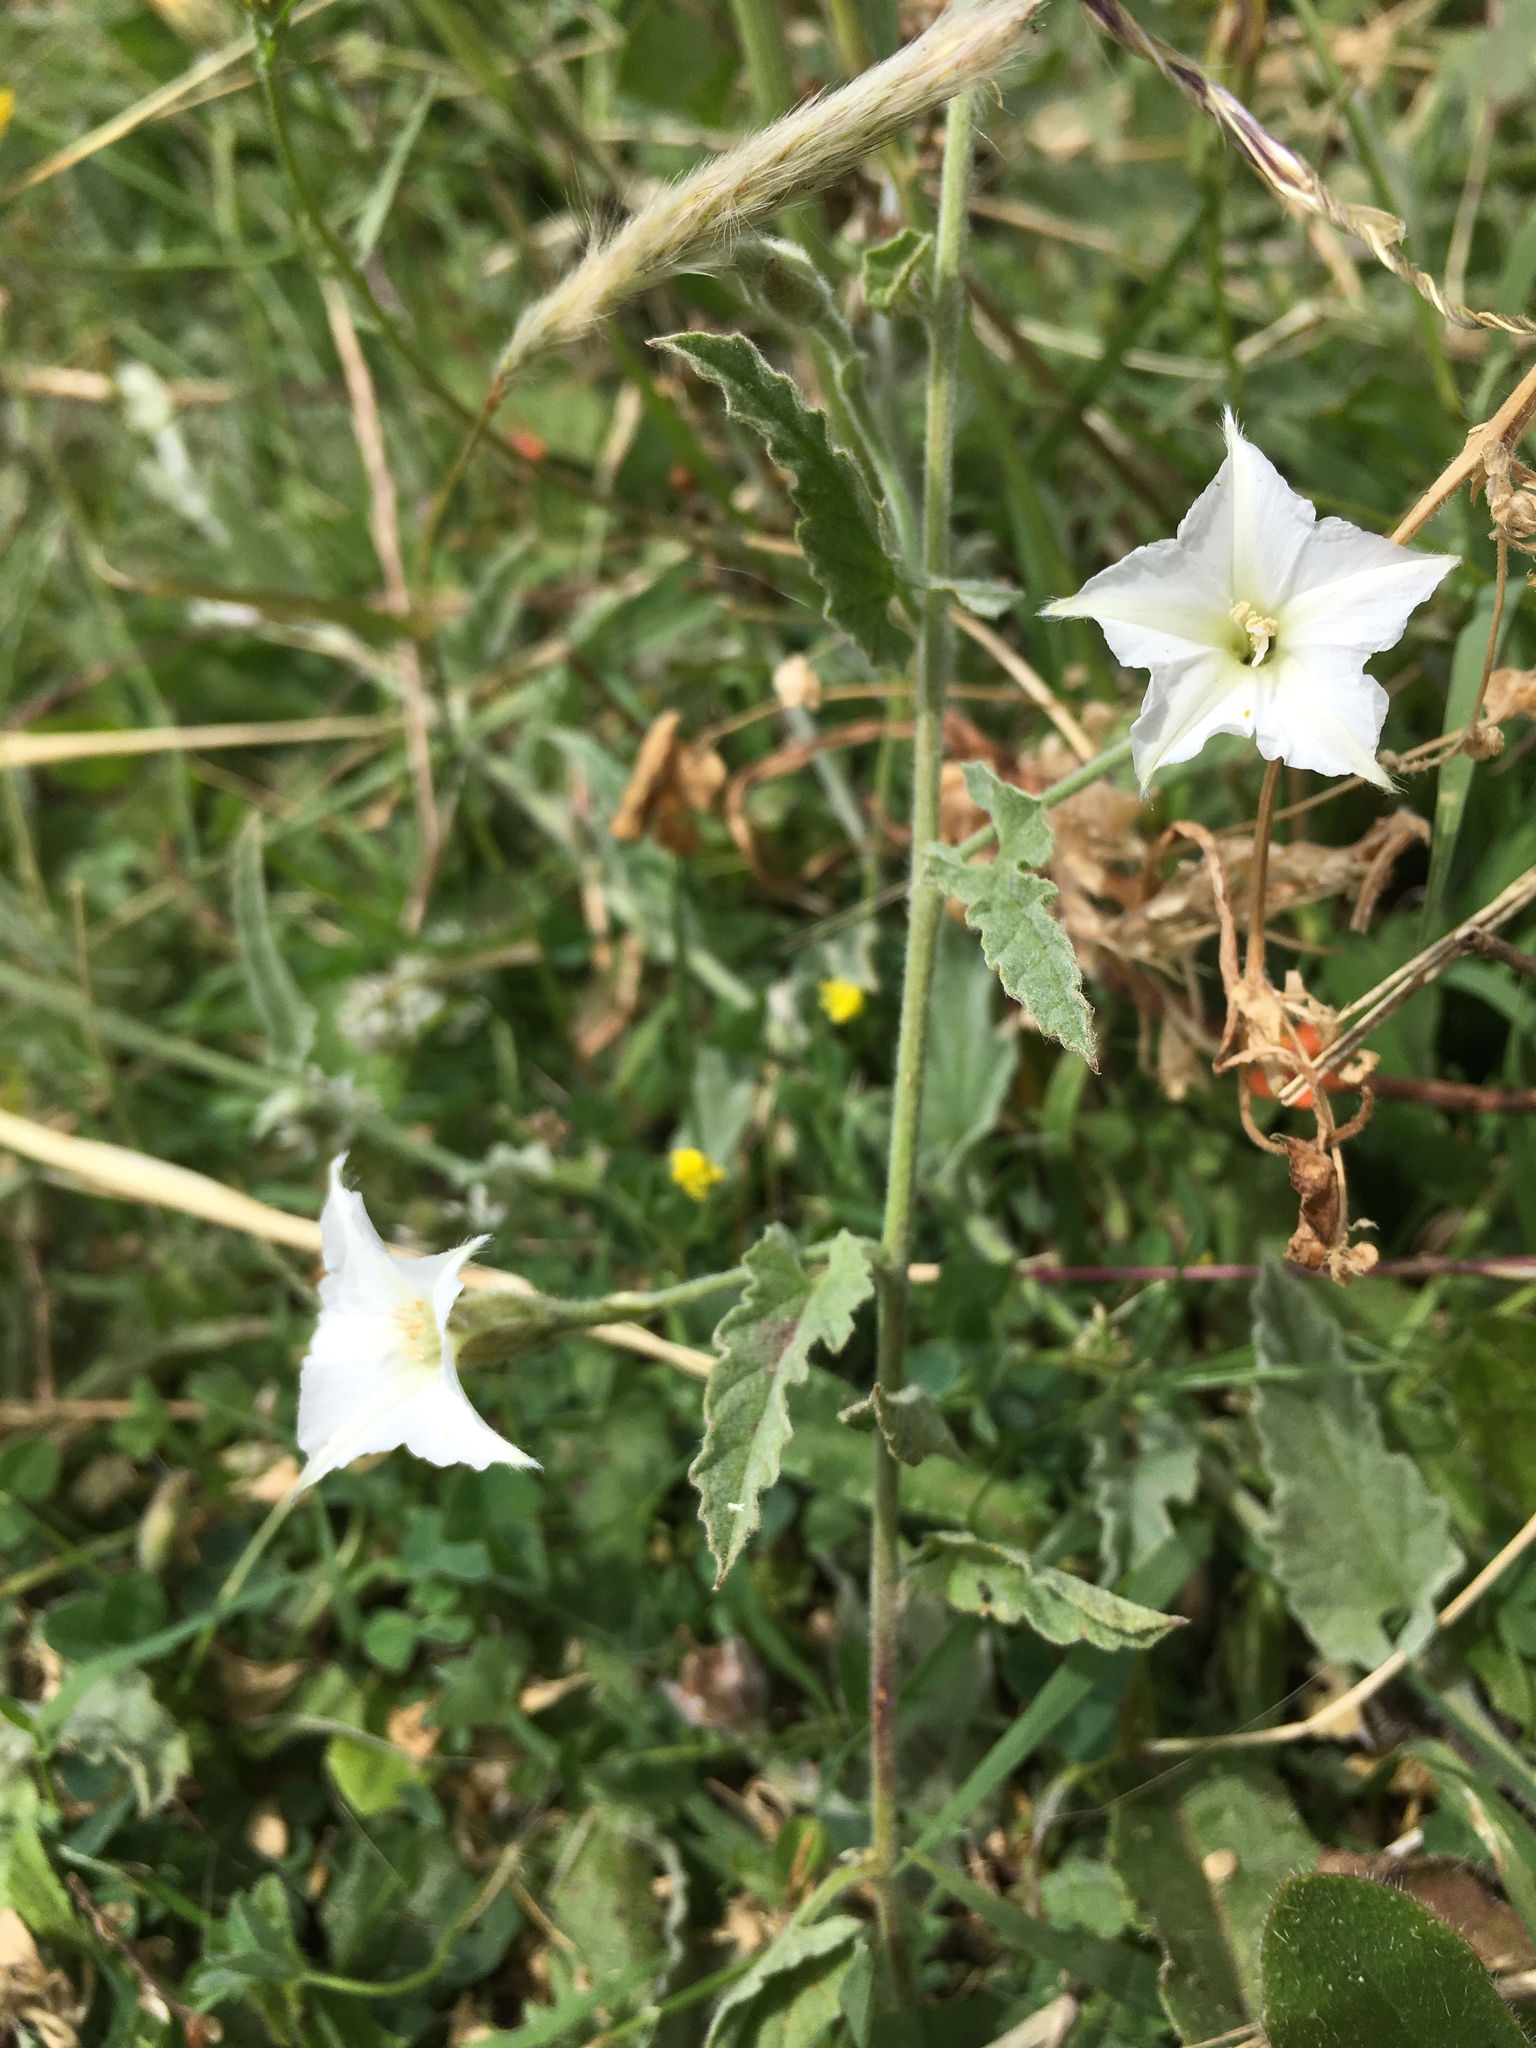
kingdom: Plantae
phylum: Tracheophyta
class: Magnoliopsida
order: Solanales
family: Convolvulaceae
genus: Convolvulus
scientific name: Convolvulus hermanniae
